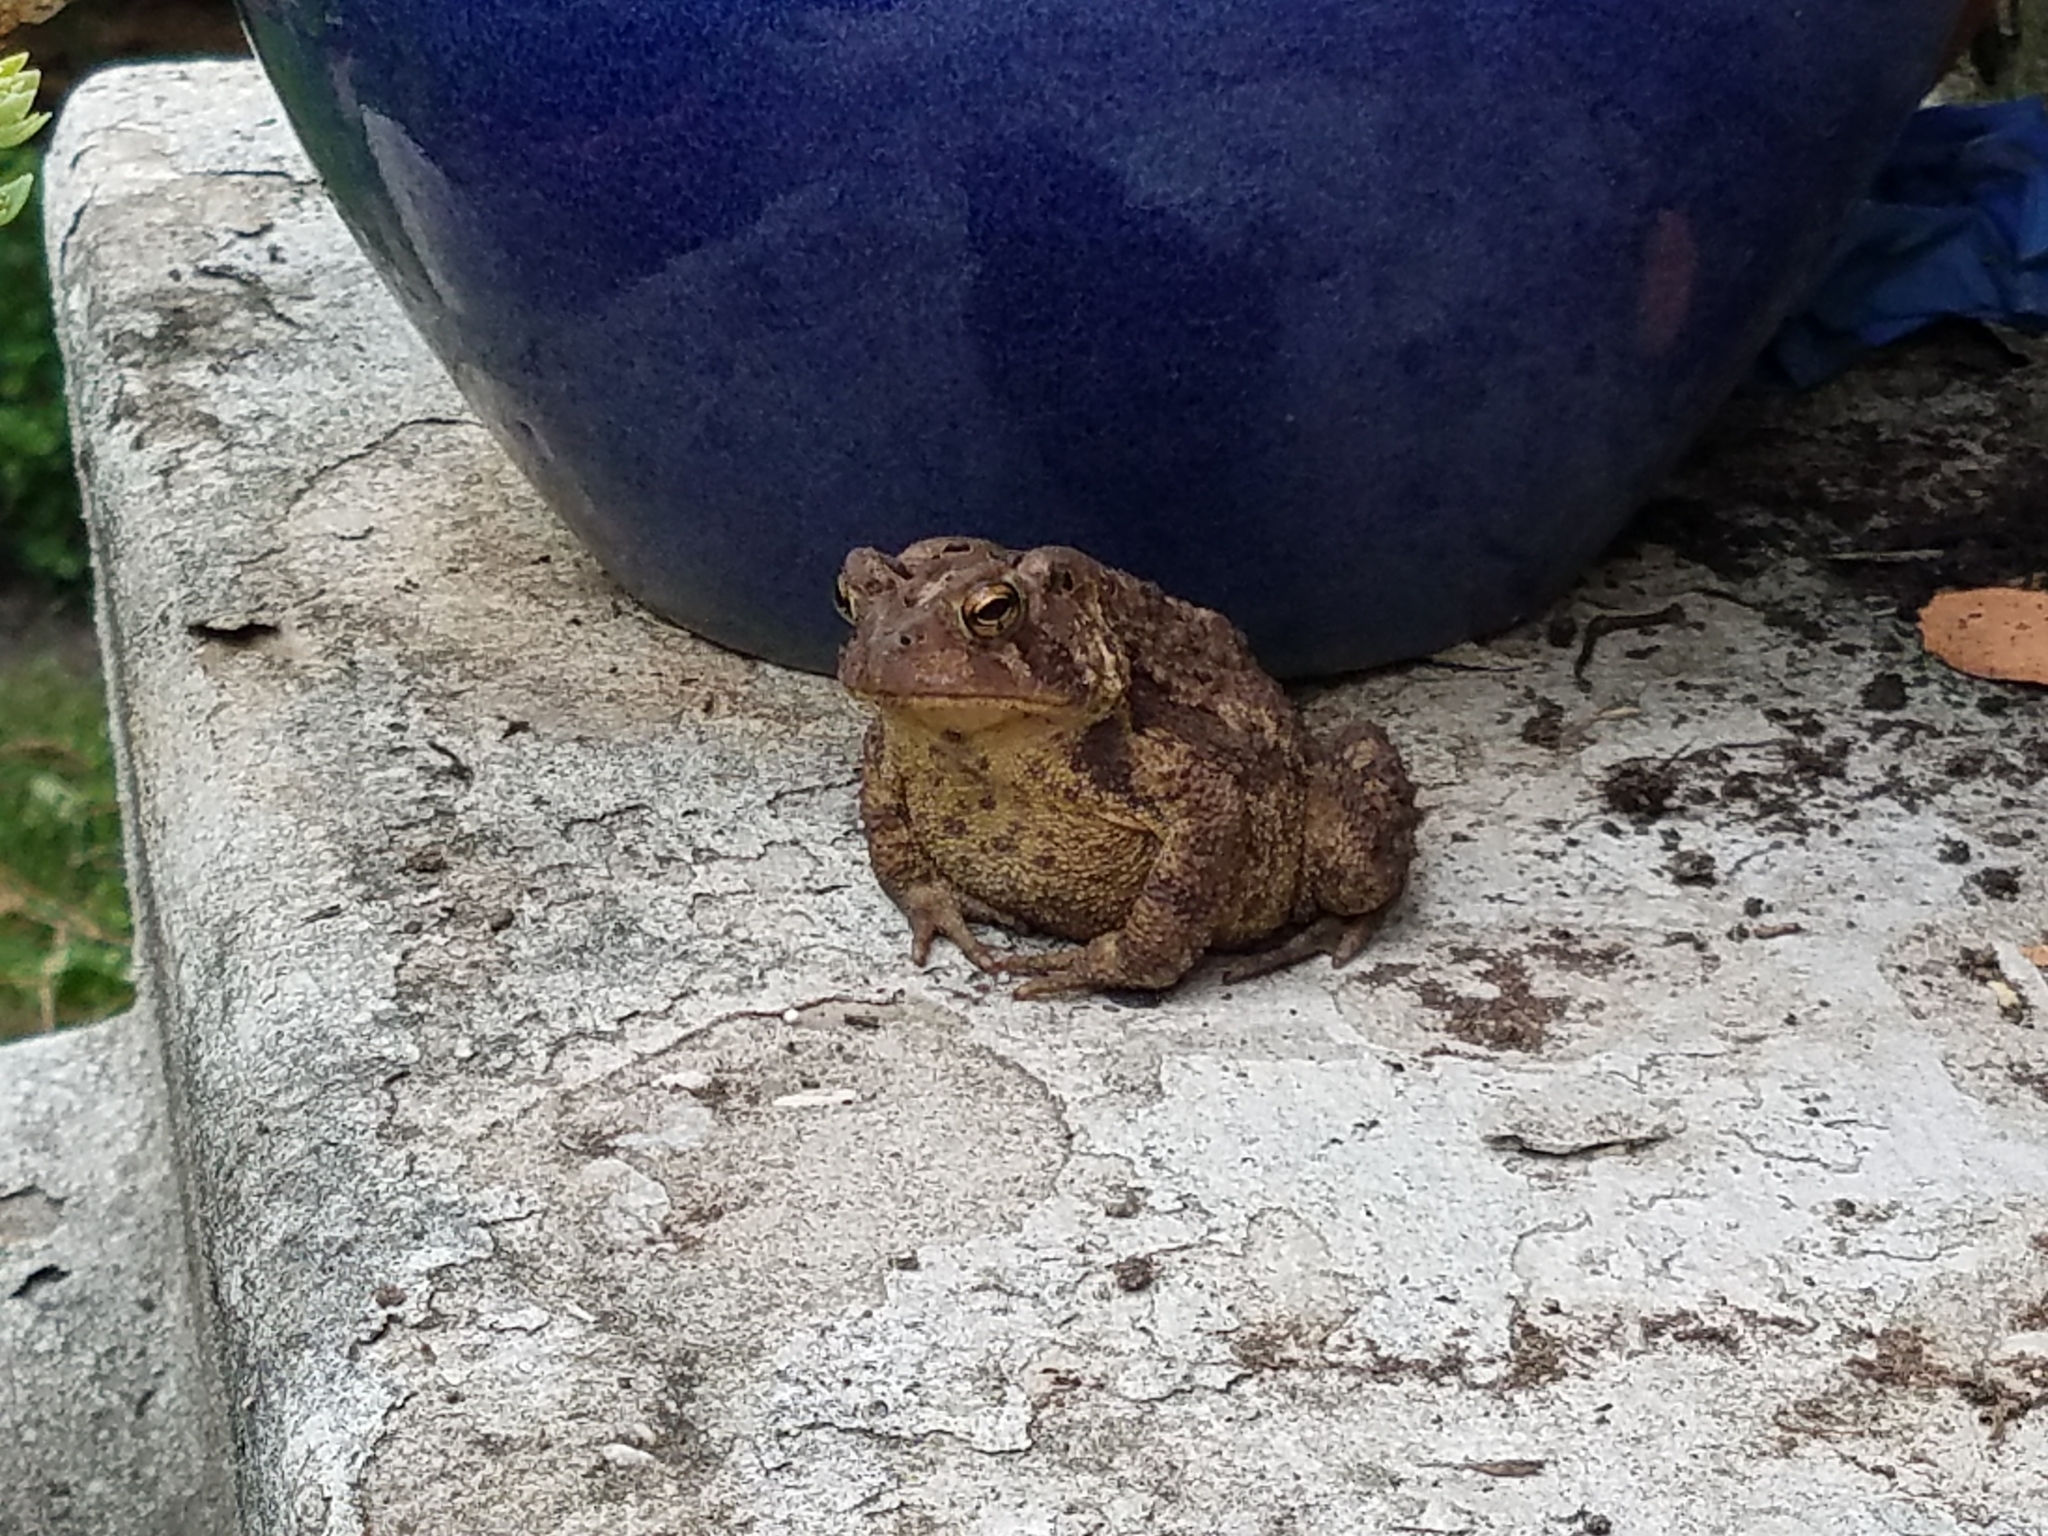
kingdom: Animalia
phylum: Chordata
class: Amphibia
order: Anura
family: Bufonidae
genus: Anaxyrus
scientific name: Anaxyrus americanus
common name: American toad
